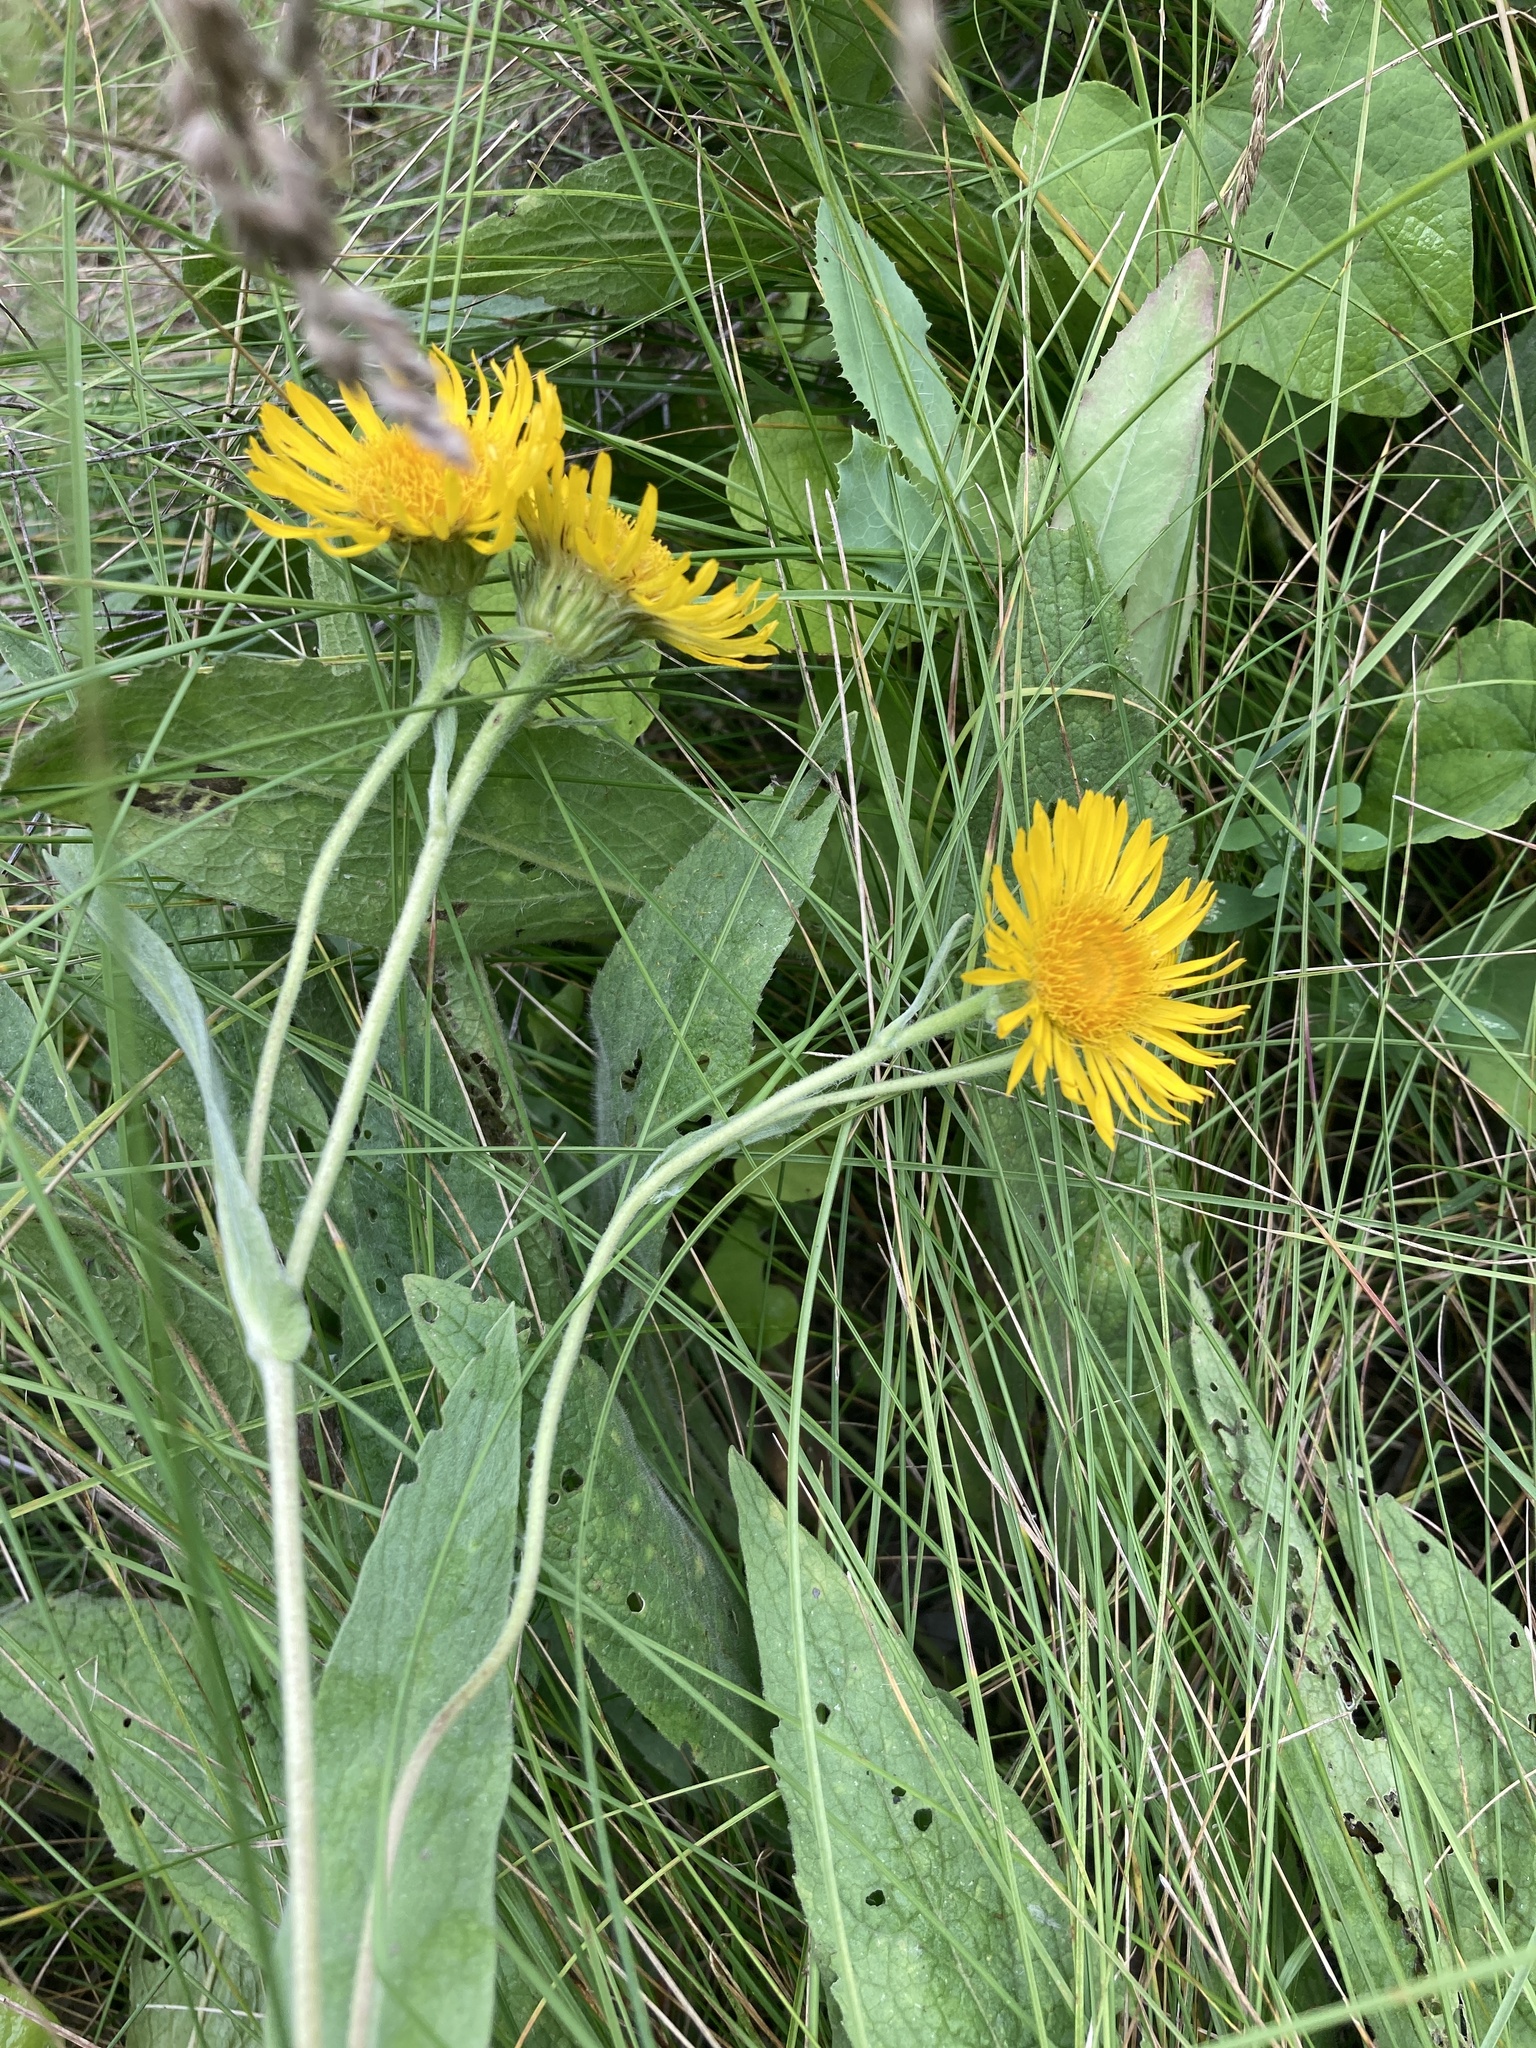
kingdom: Plantae
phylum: Tracheophyta
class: Magnoliopsida
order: Asterales
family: Asteraceae
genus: Pentanema
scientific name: Pentanema oculus-christi
